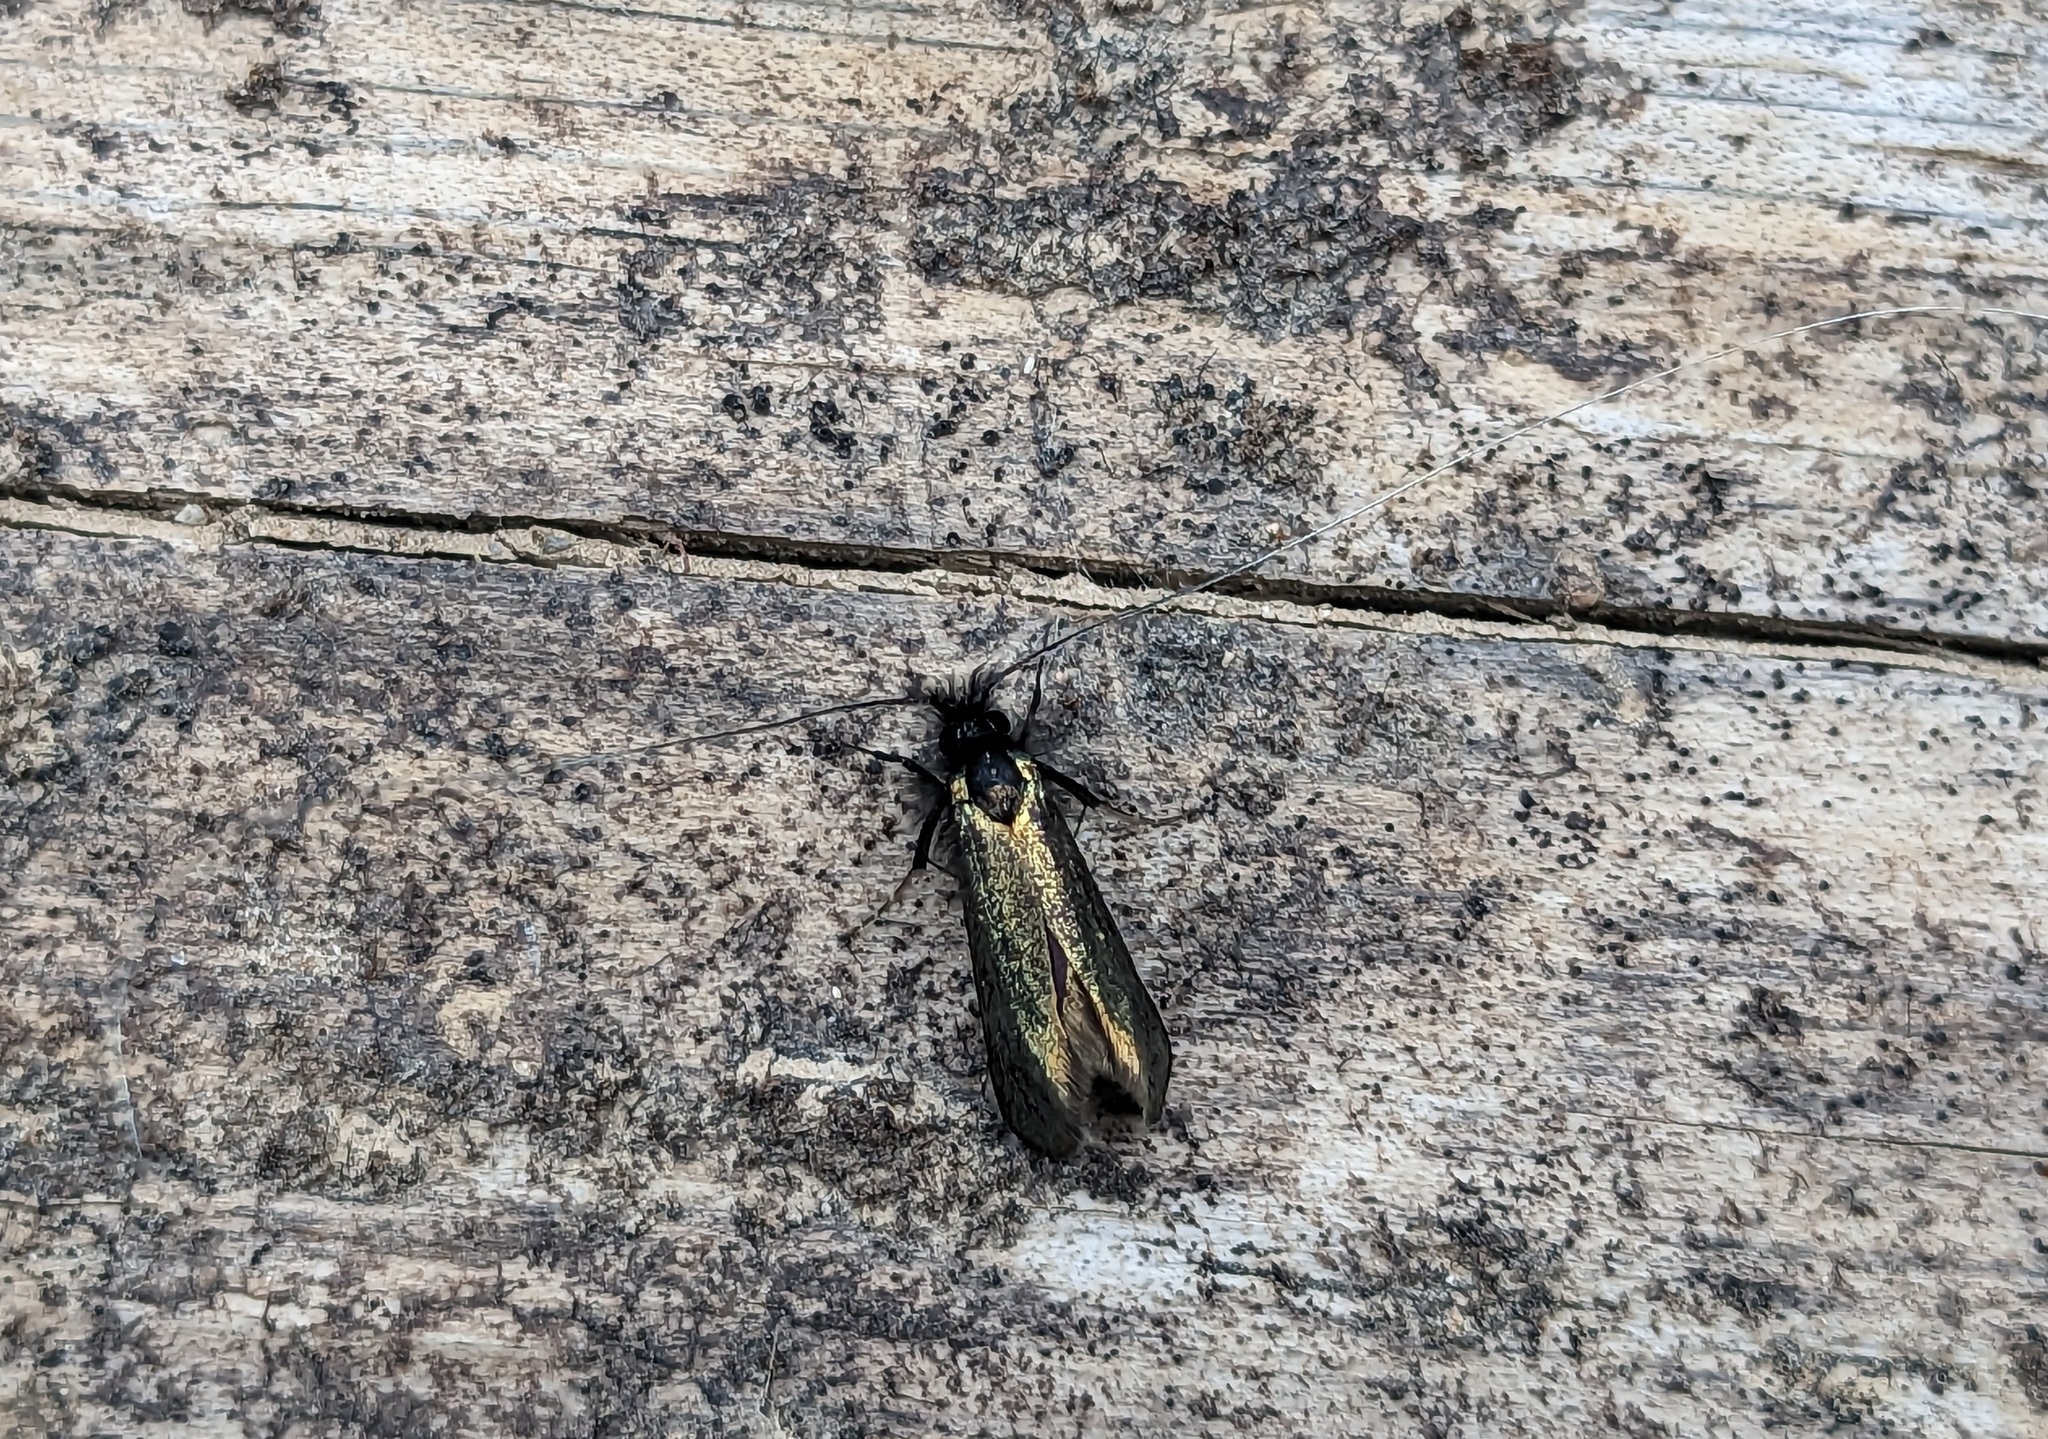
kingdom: Animalia
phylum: Arthropoda
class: Insecta
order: Lepidoptera
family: Adelidae
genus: Adela
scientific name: Adela viridella
